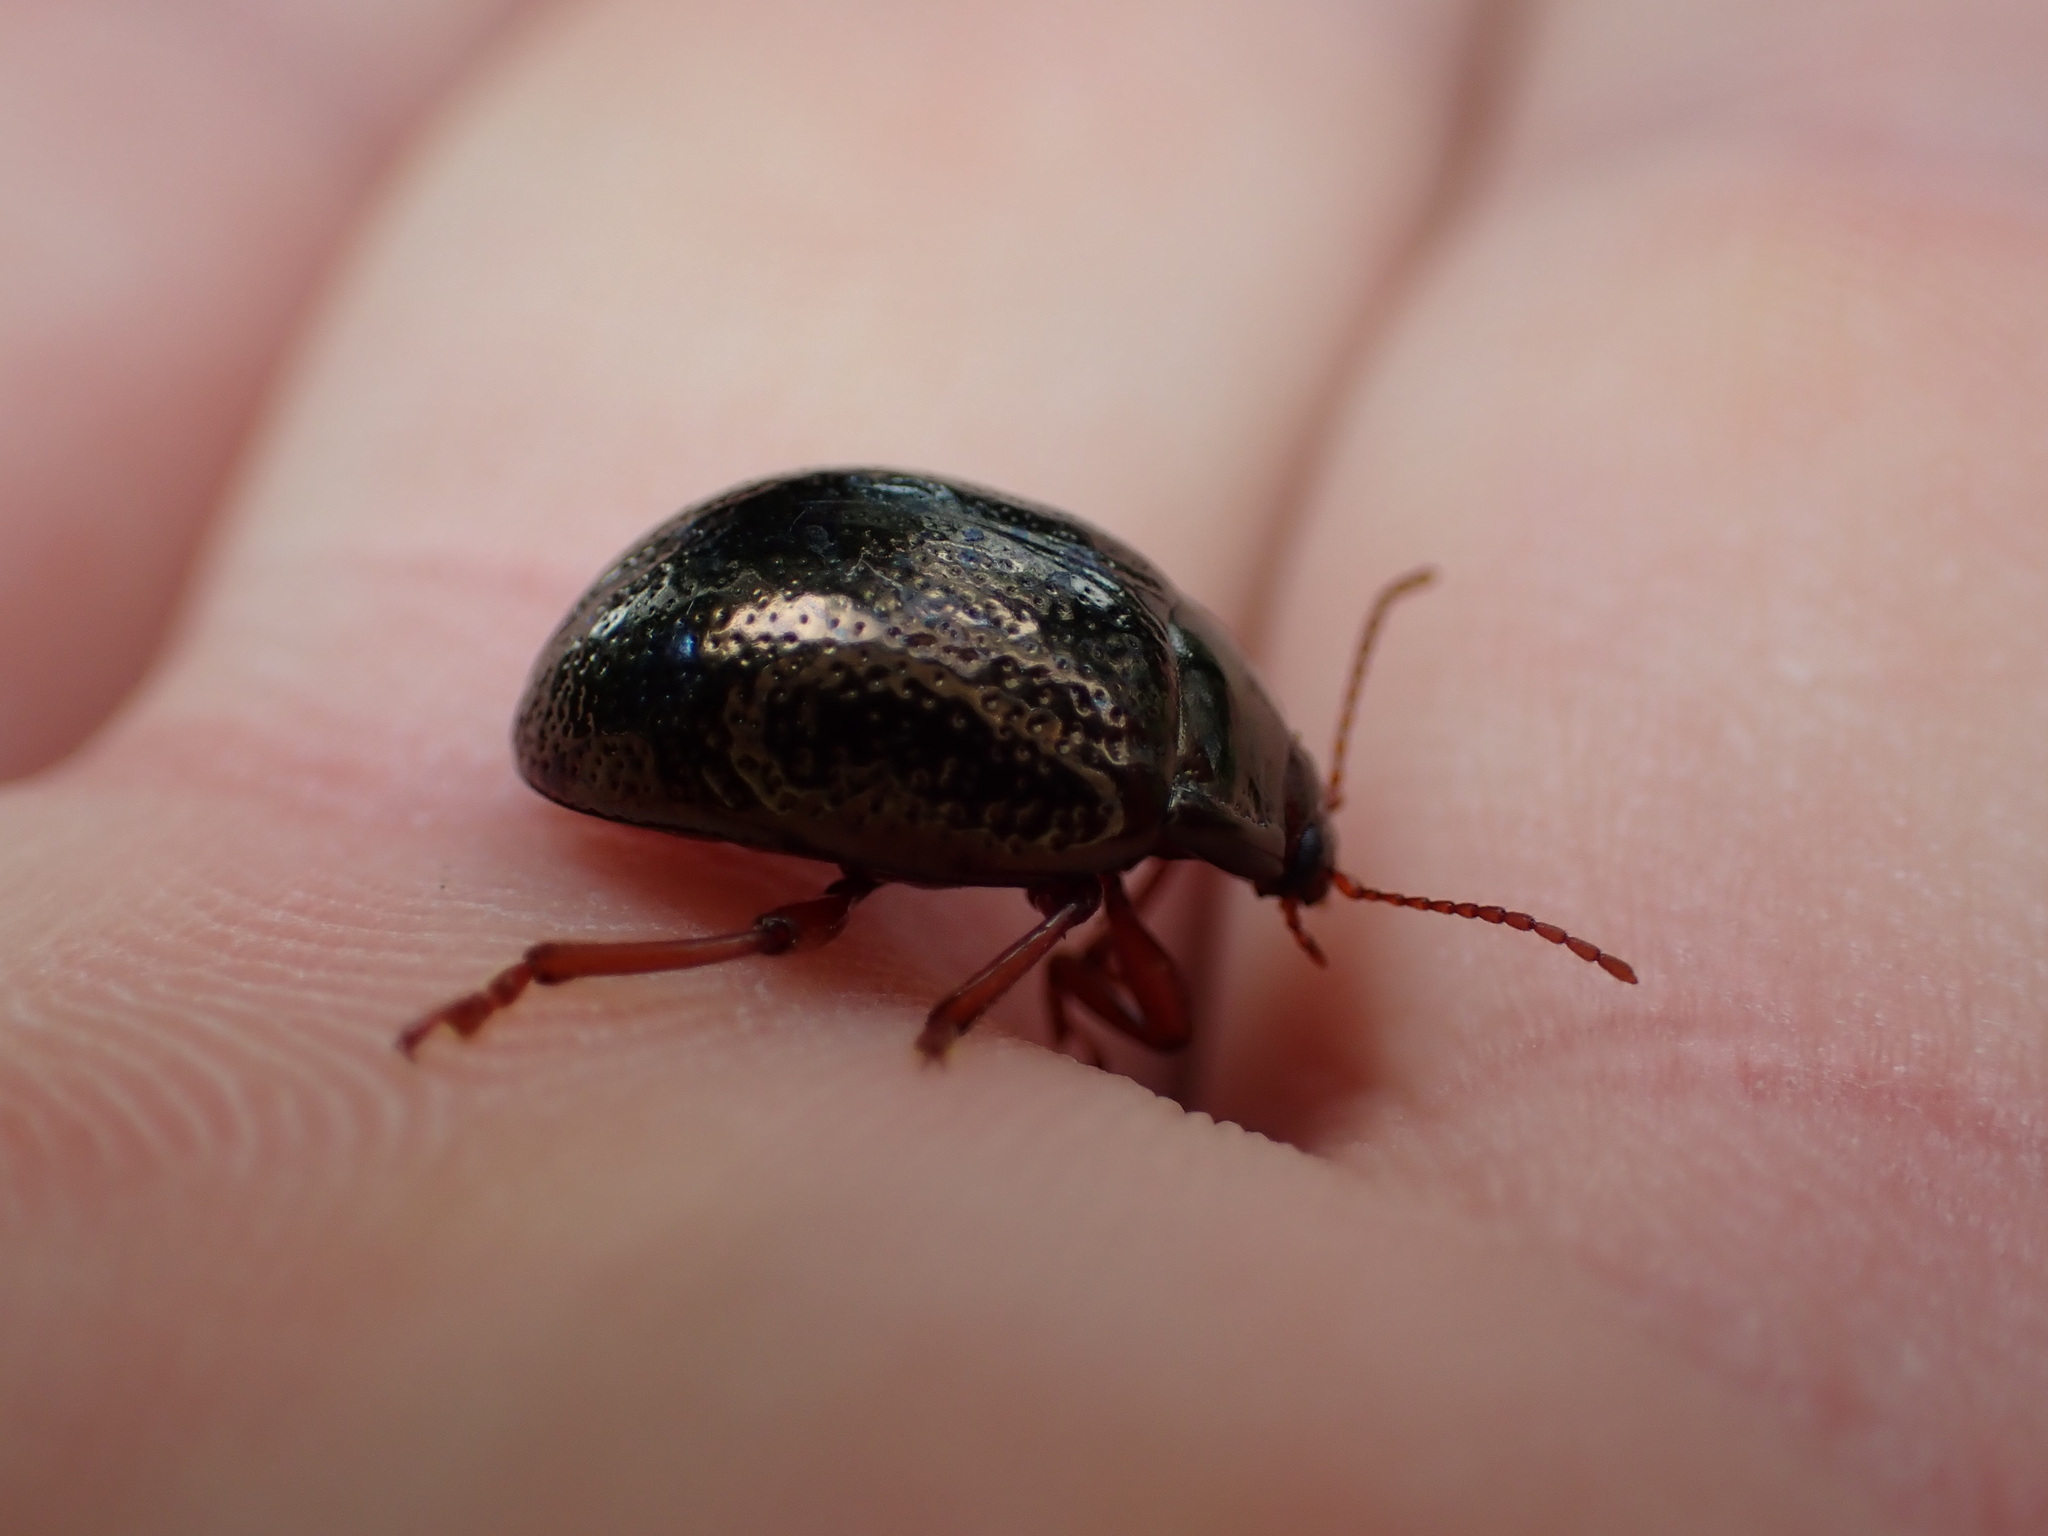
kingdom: Animalia
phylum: Arthropoda
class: Insecta
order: Coleoptera
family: Chrysomelidae
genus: Chrysolina
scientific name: Chrysolina bankii
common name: Leaf beetle
